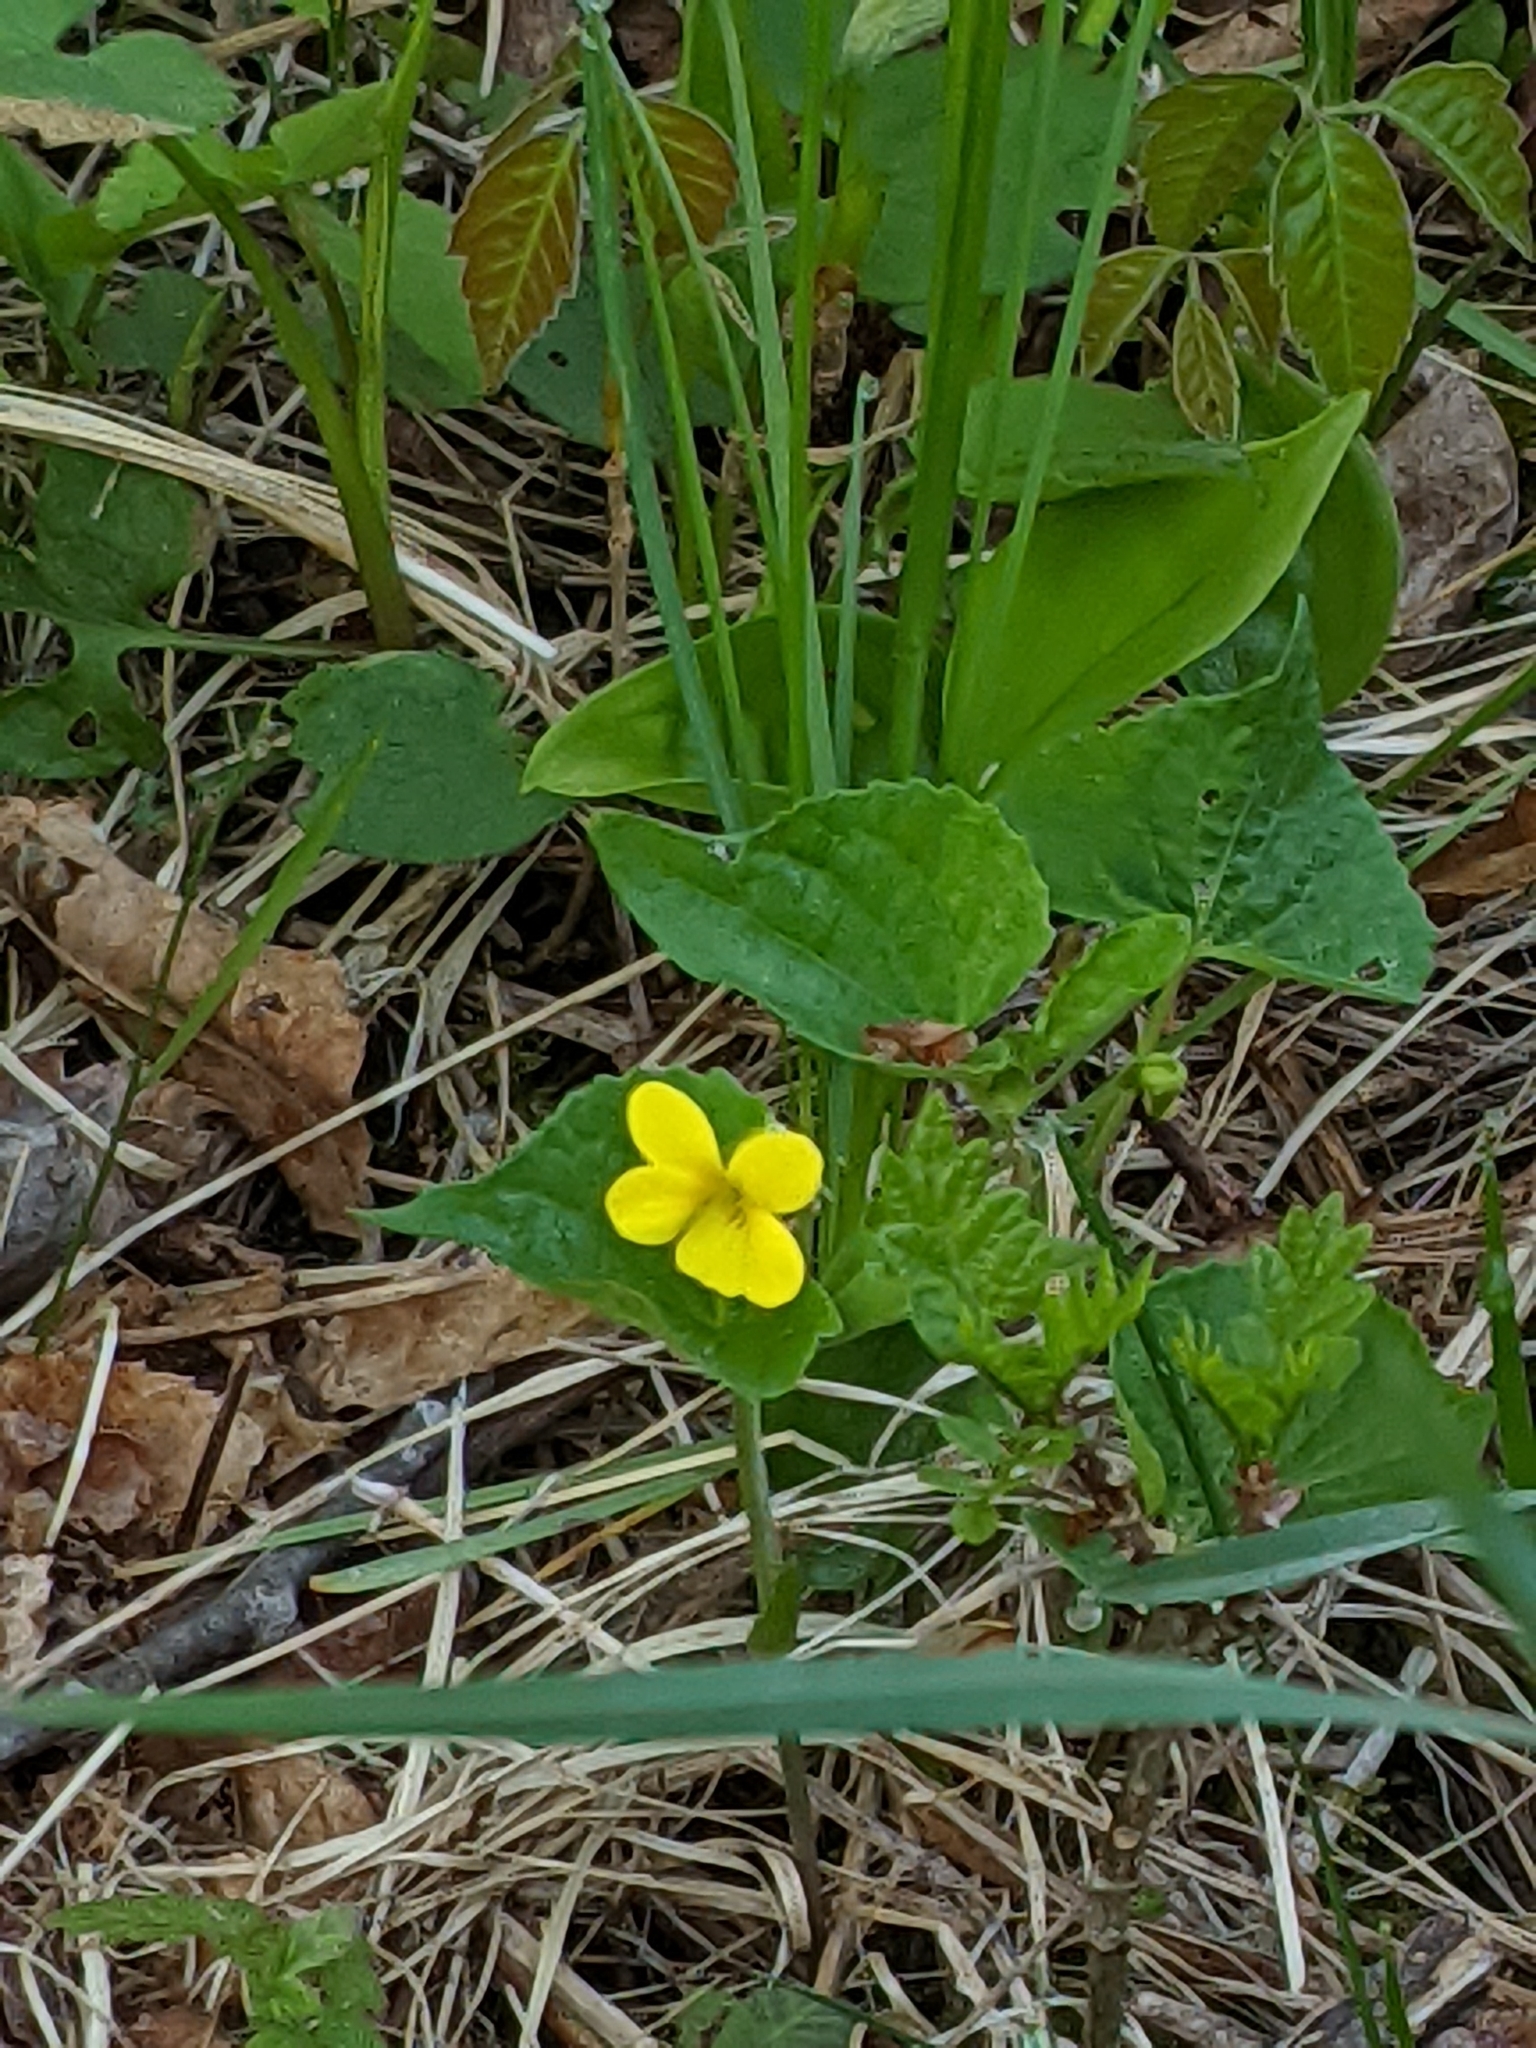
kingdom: Plantae
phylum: Tracheophyta
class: Magnoliopsida
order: Malpighiales
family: Violaceae
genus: Viola
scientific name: Viola eriocarpa
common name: Smooth yellow violet
